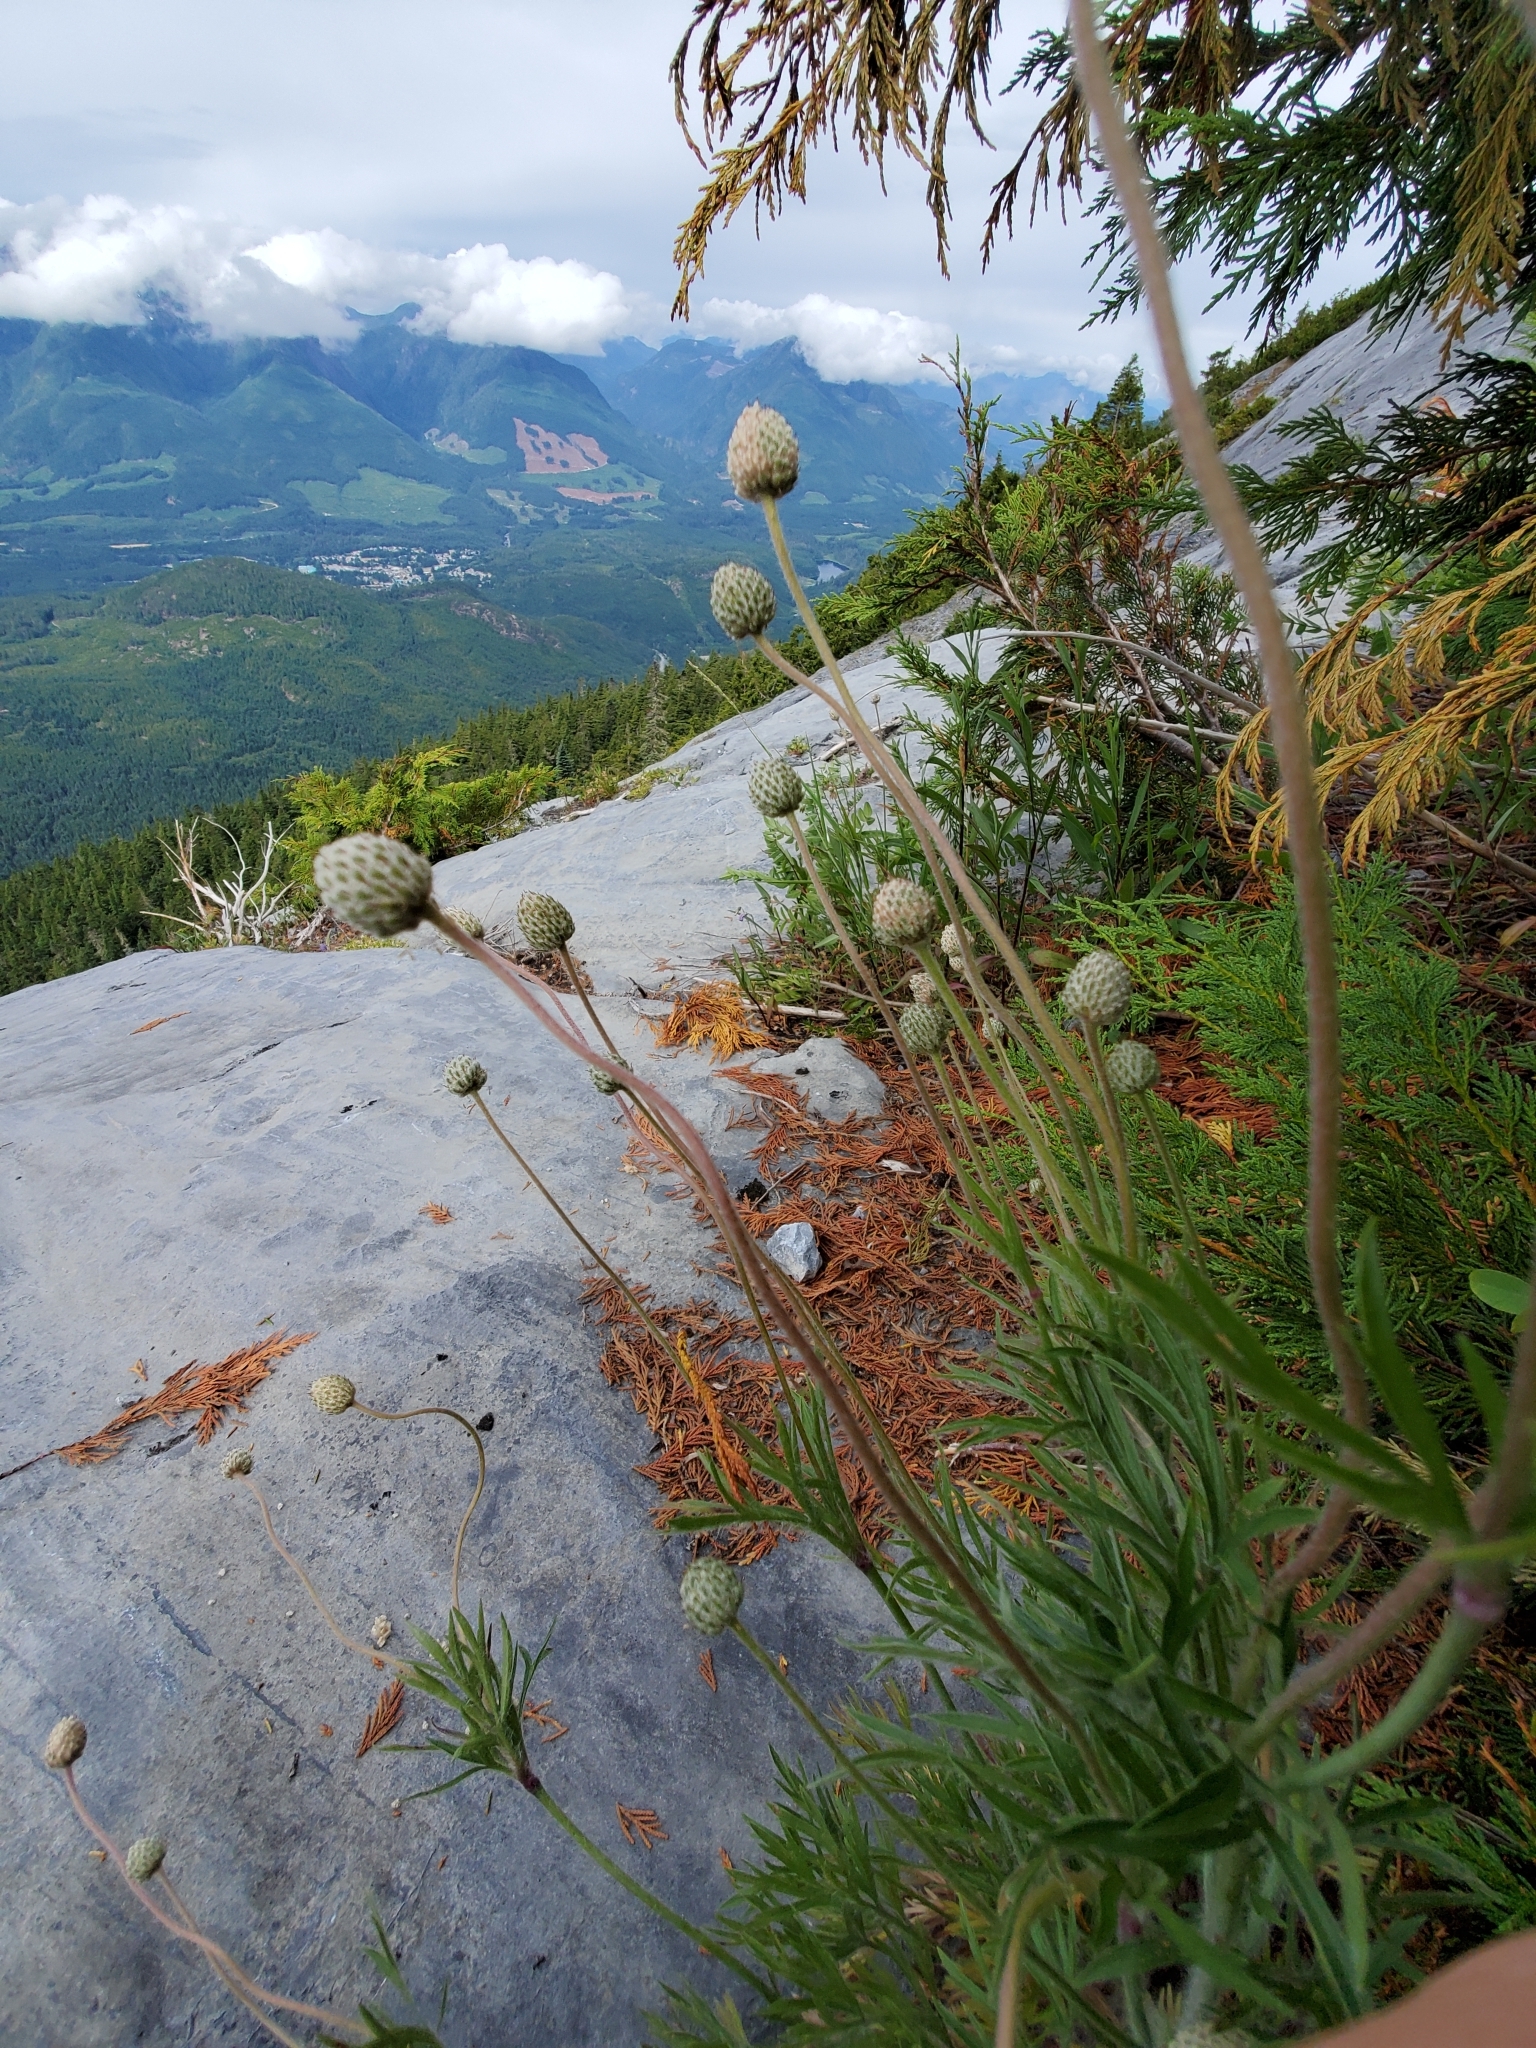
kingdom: Plantae
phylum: Tracheophyta
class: Magnoliopsida
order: Ranunculales
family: Ranunculaceae
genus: Anemone
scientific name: Anemone multifida
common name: Bird's-foot anemone
